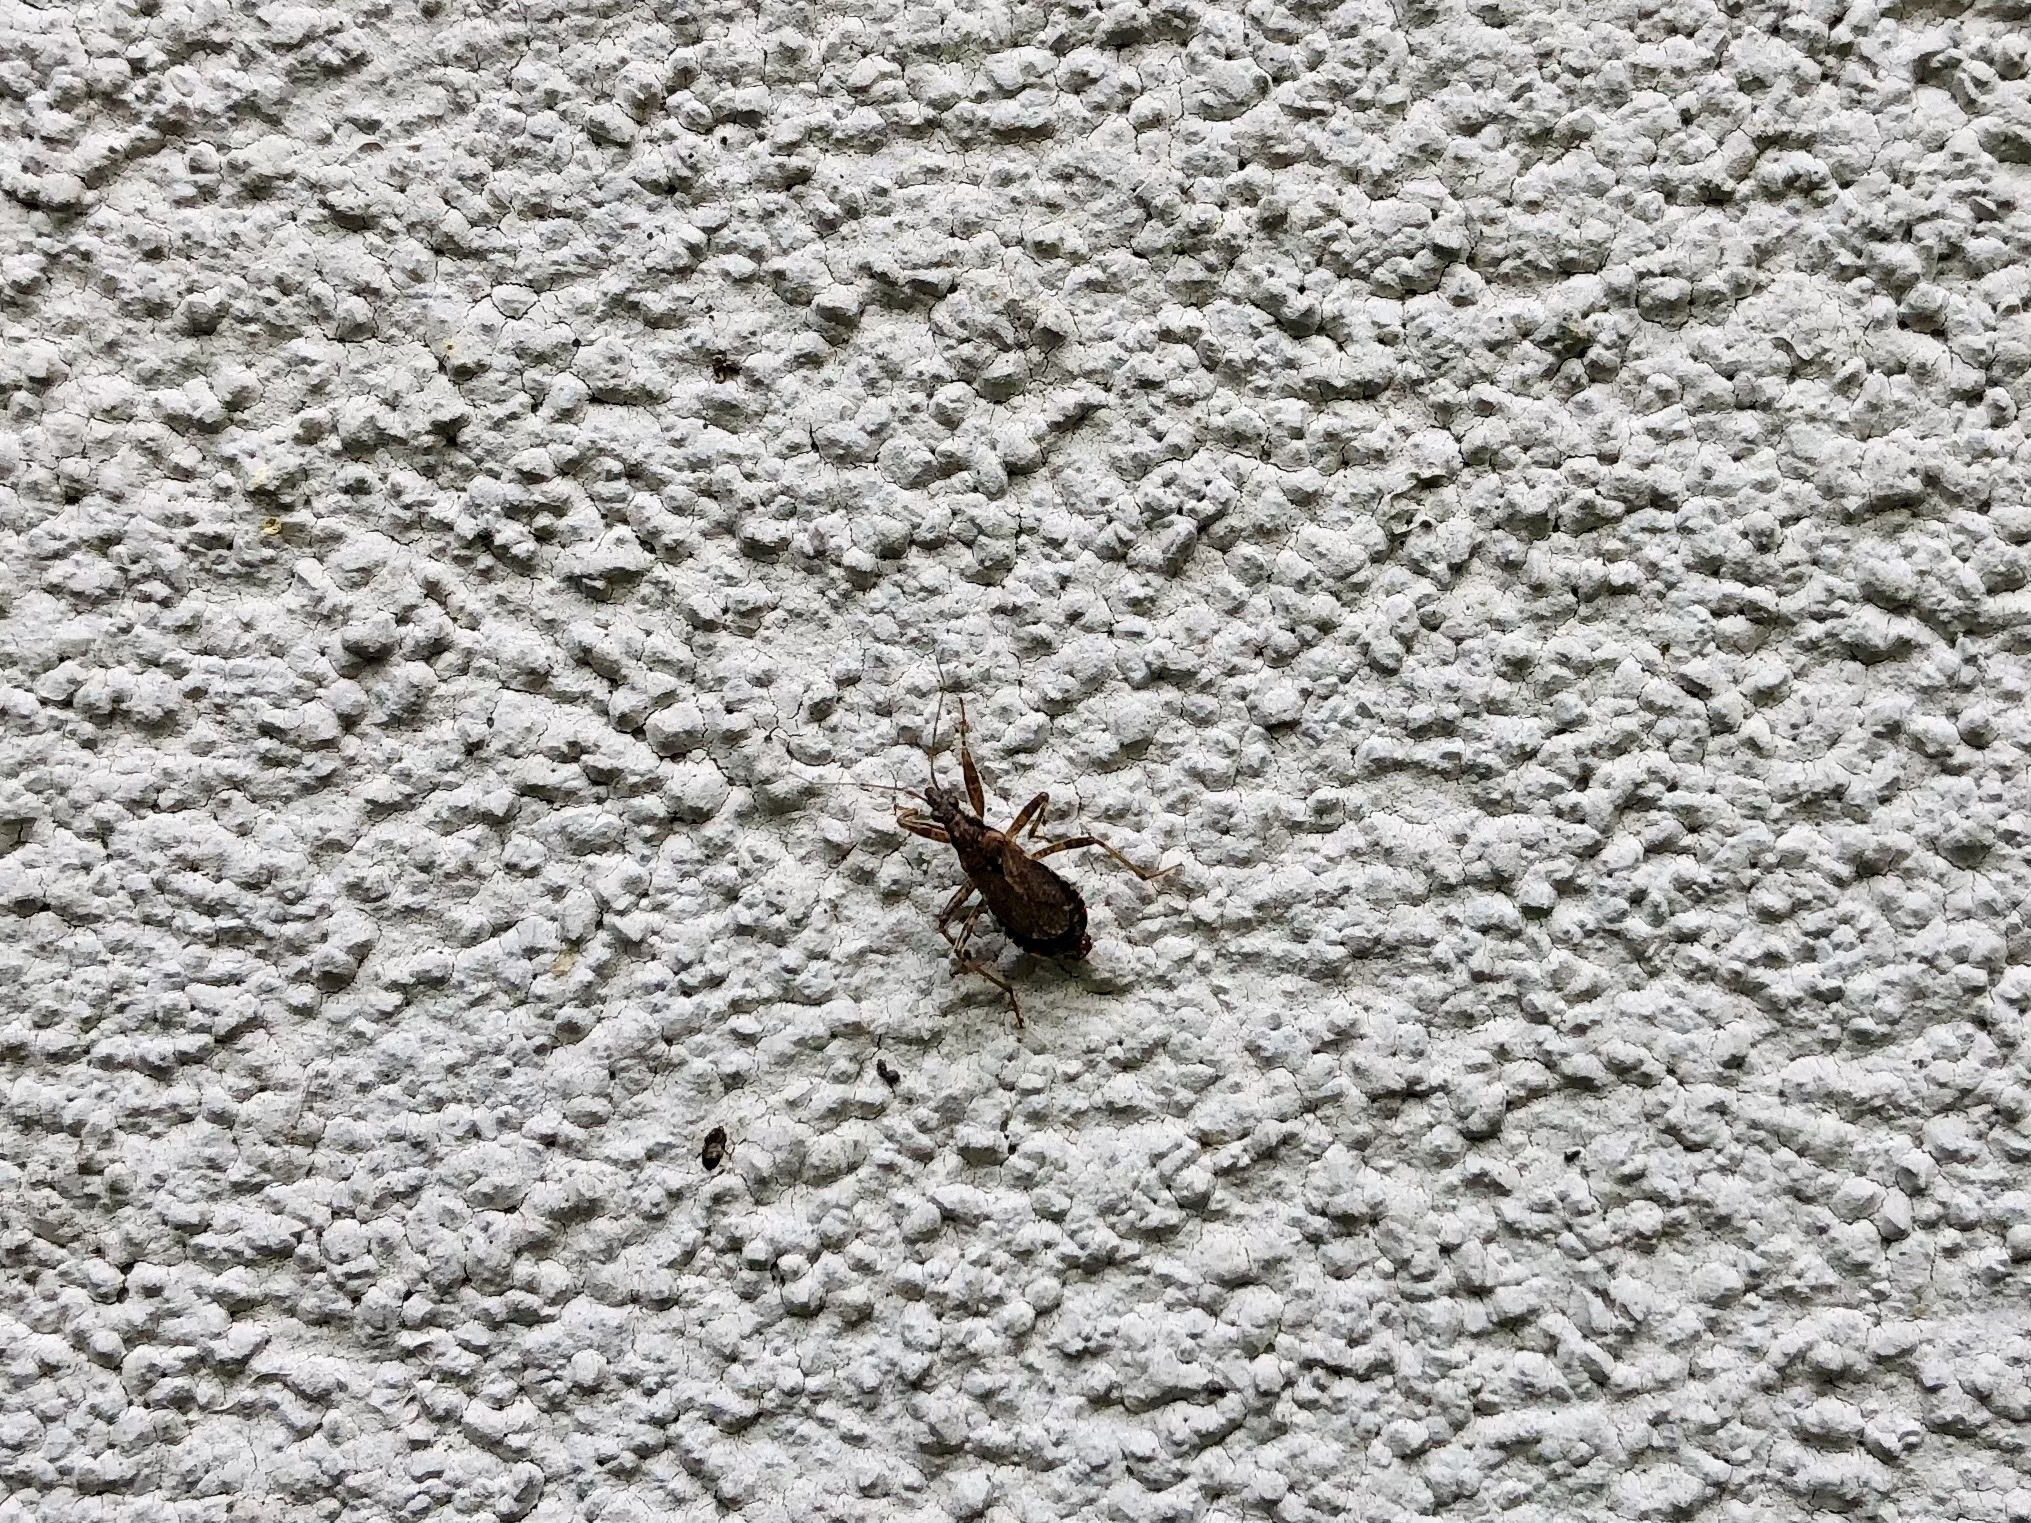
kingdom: Animalia
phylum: Arthropoda
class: Insecta
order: Hemiptera
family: Nabidae
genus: Himacerus
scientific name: Himacerus mirmicoides
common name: Ant damsel bug
